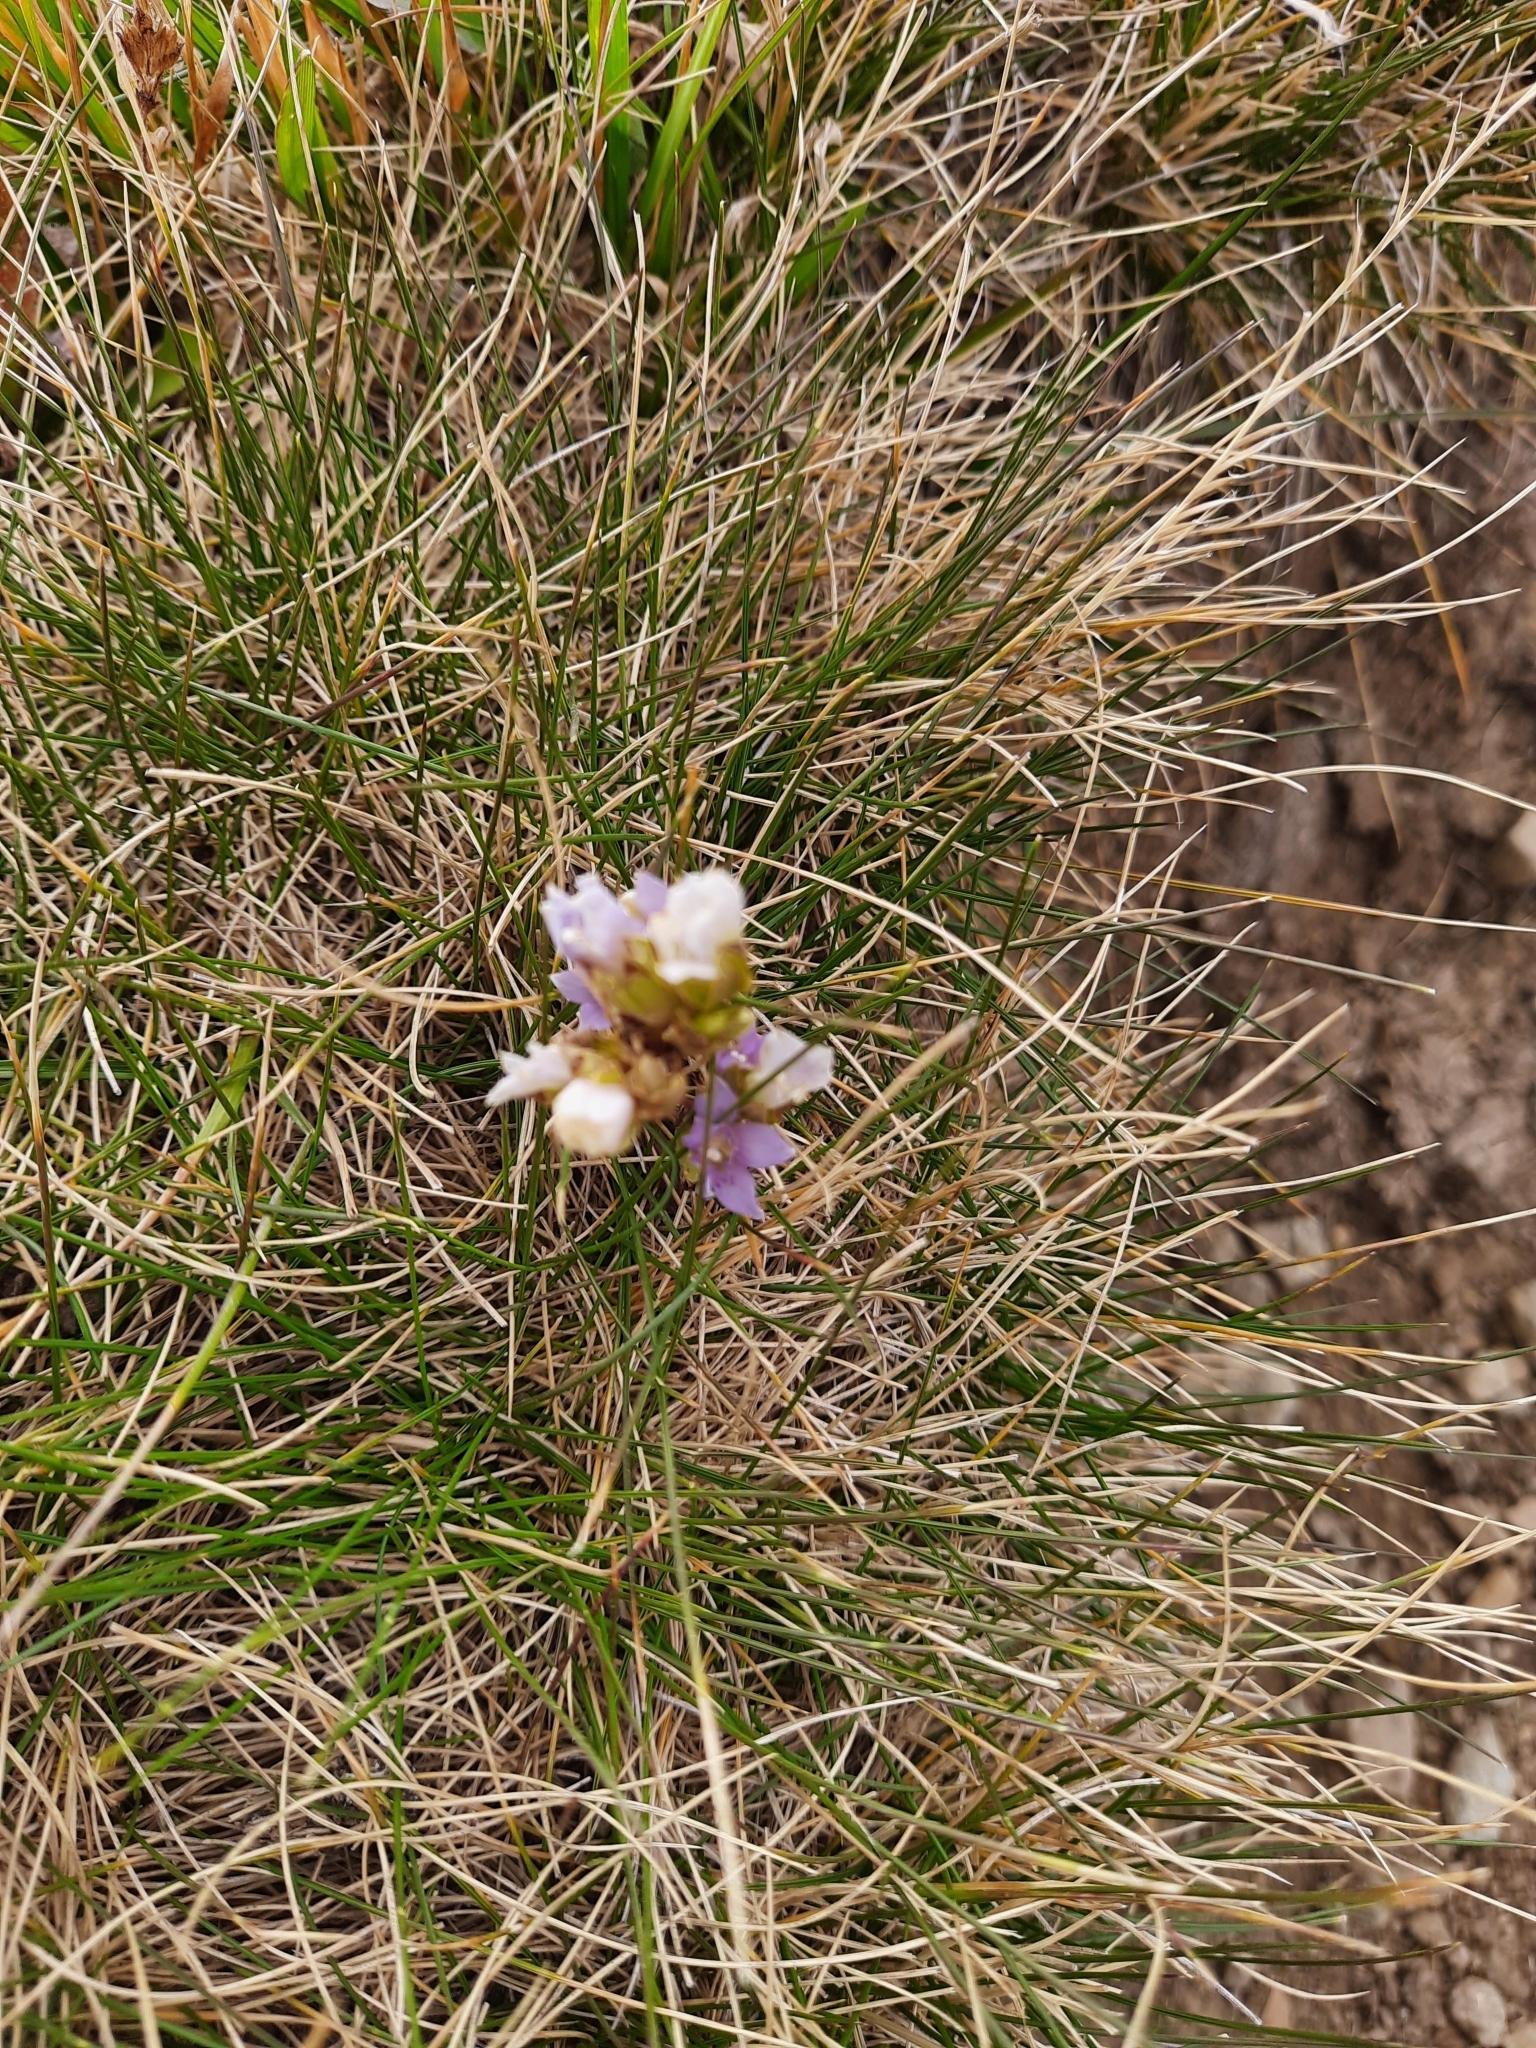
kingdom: Plantae
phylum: Tracheophyta
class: Magnoliopsida
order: Gentianales
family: Gentianaceae
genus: Gentianella
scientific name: Gentianella biebersteinii
